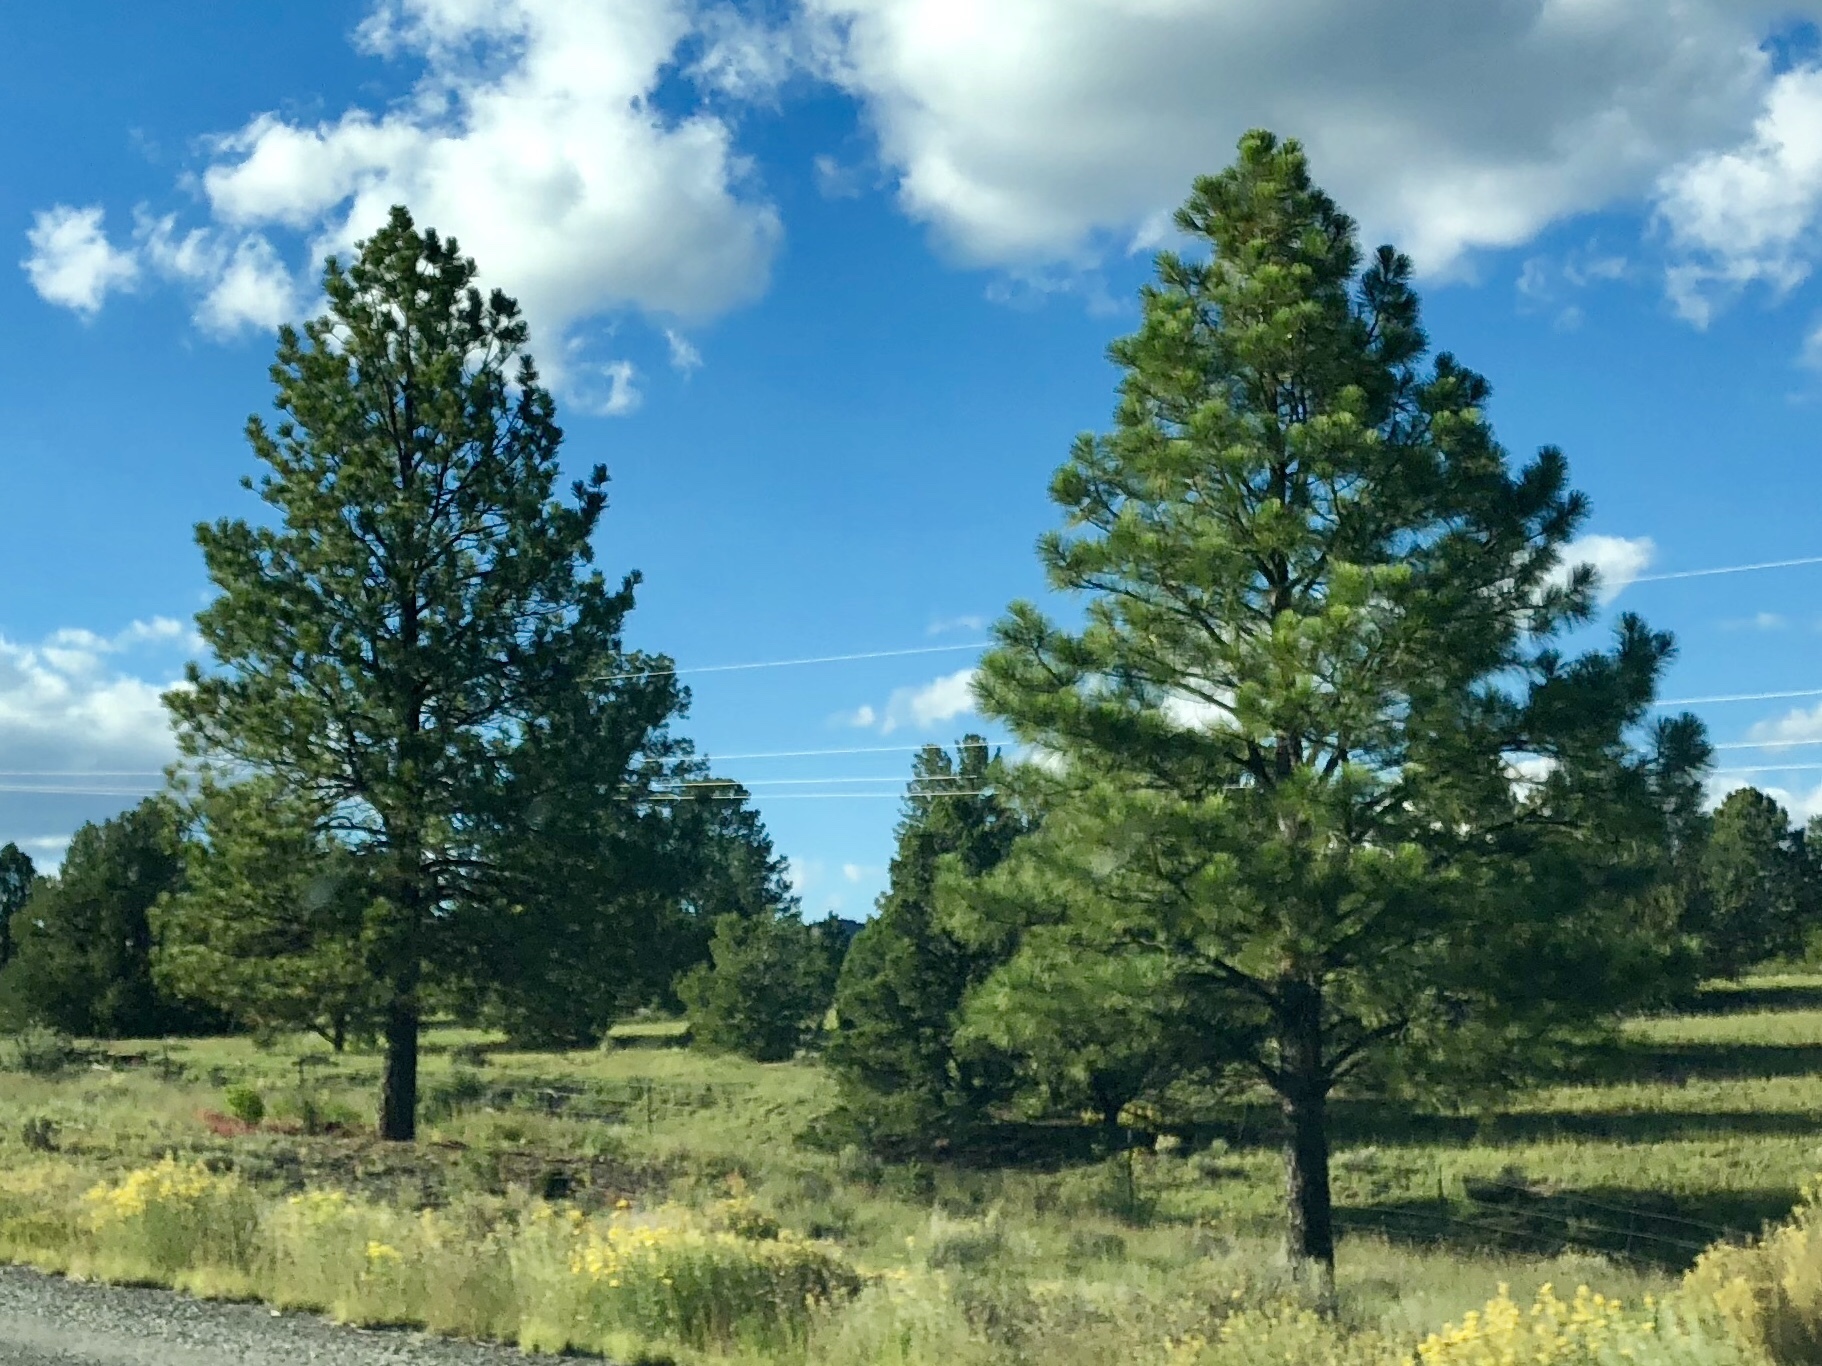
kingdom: Plantae
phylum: Tracheophyta
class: Pinopsida
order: Pinales
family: Pinaceae
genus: Pinus
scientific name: Pinus ponderosa
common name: Western yellow-pine
